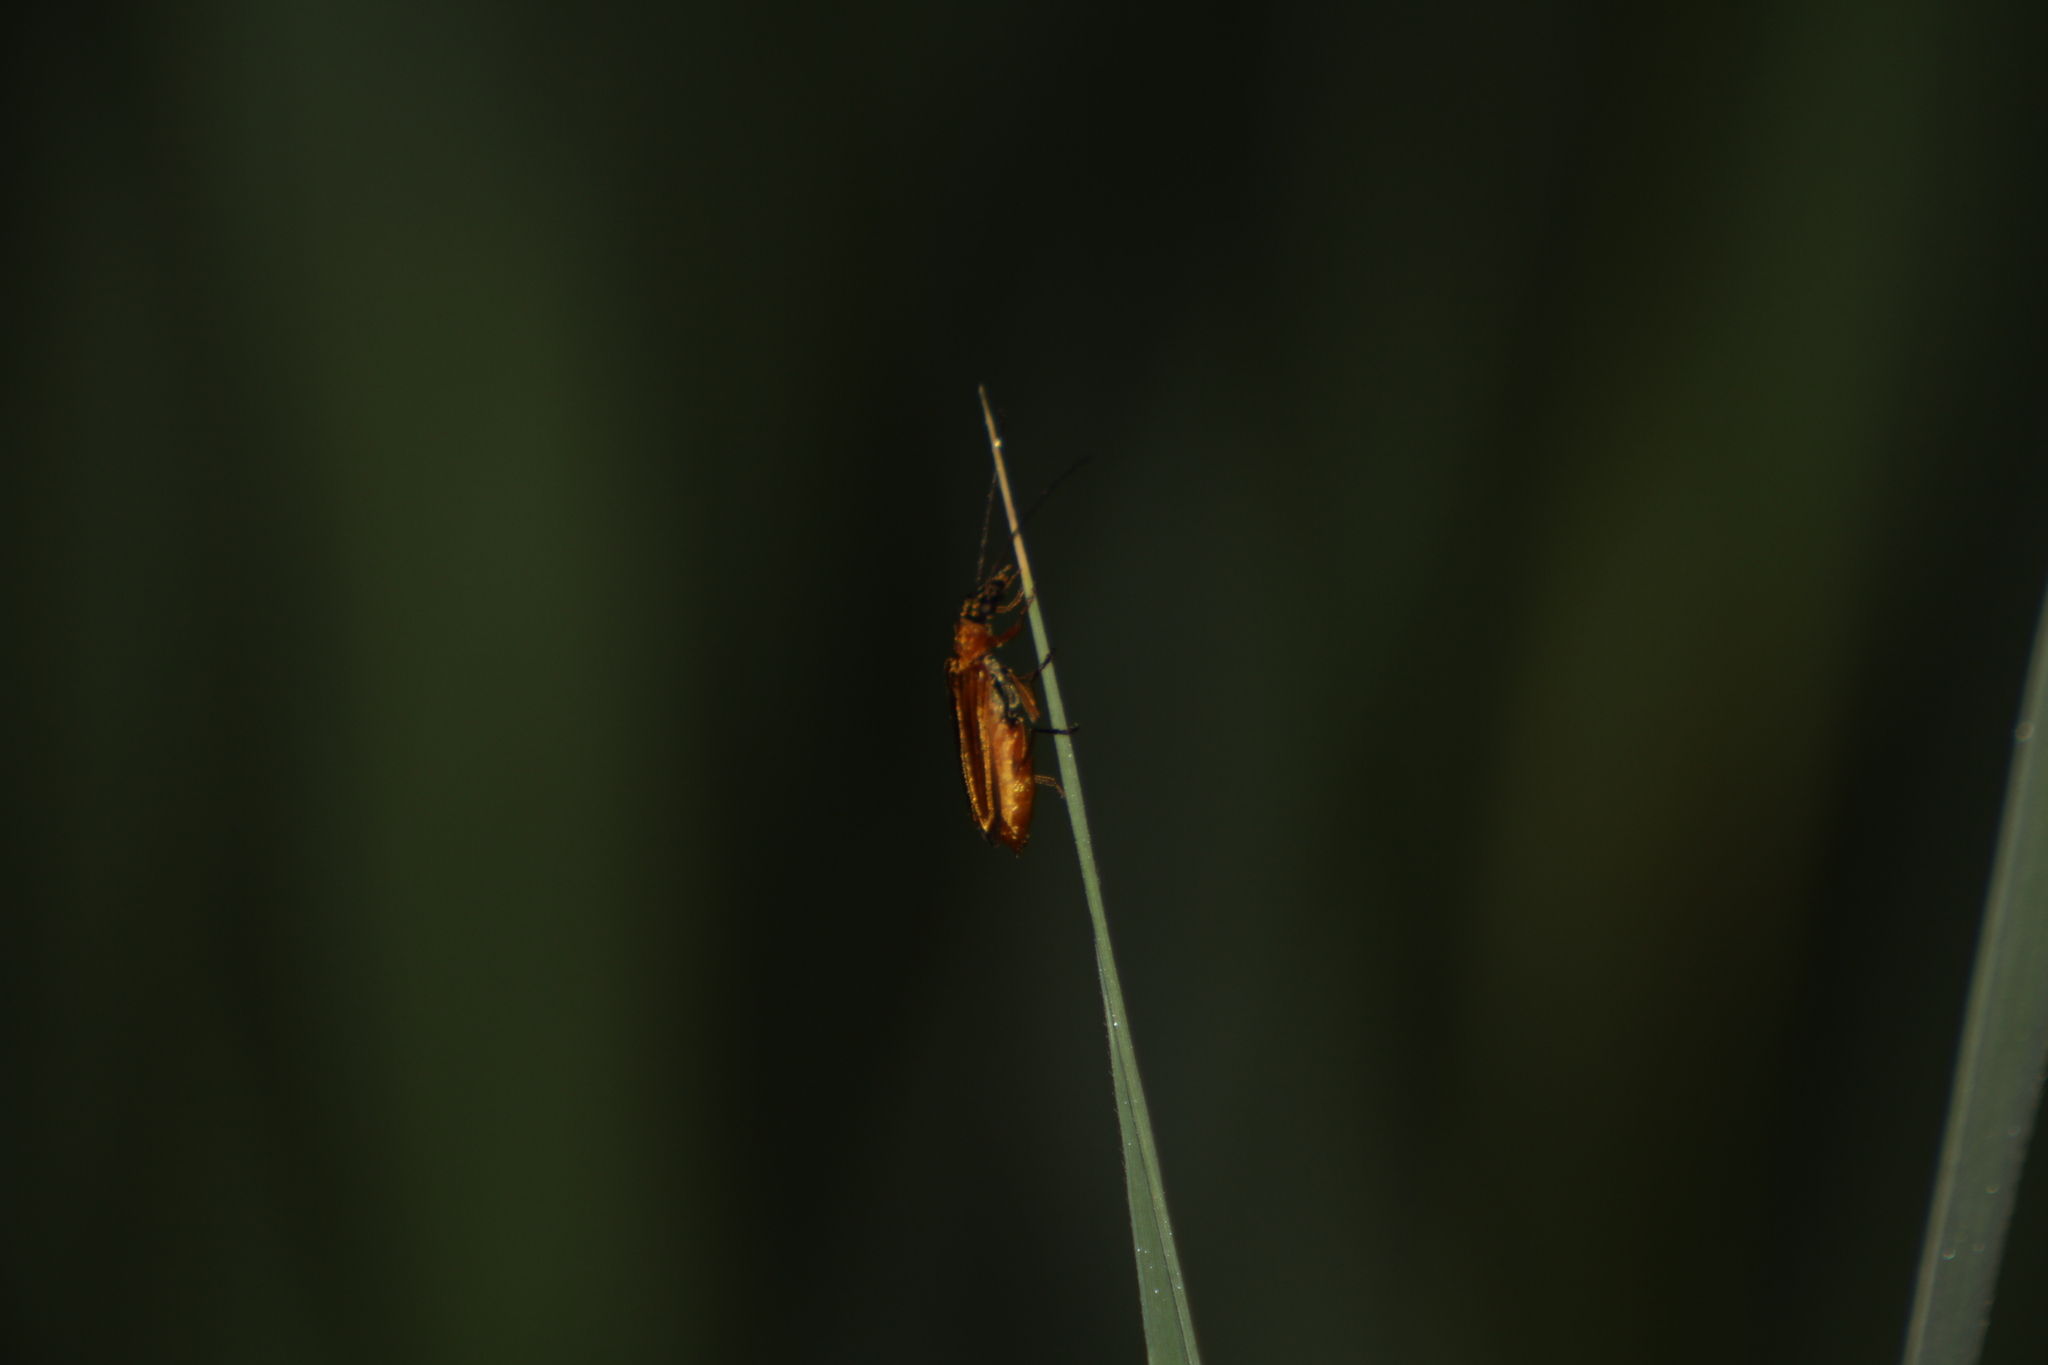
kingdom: Animalia
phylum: Arthropoda
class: Insecta
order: Coleoptera
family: Oedemeridae
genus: Oedemera
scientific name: Oedemera podagrariae
